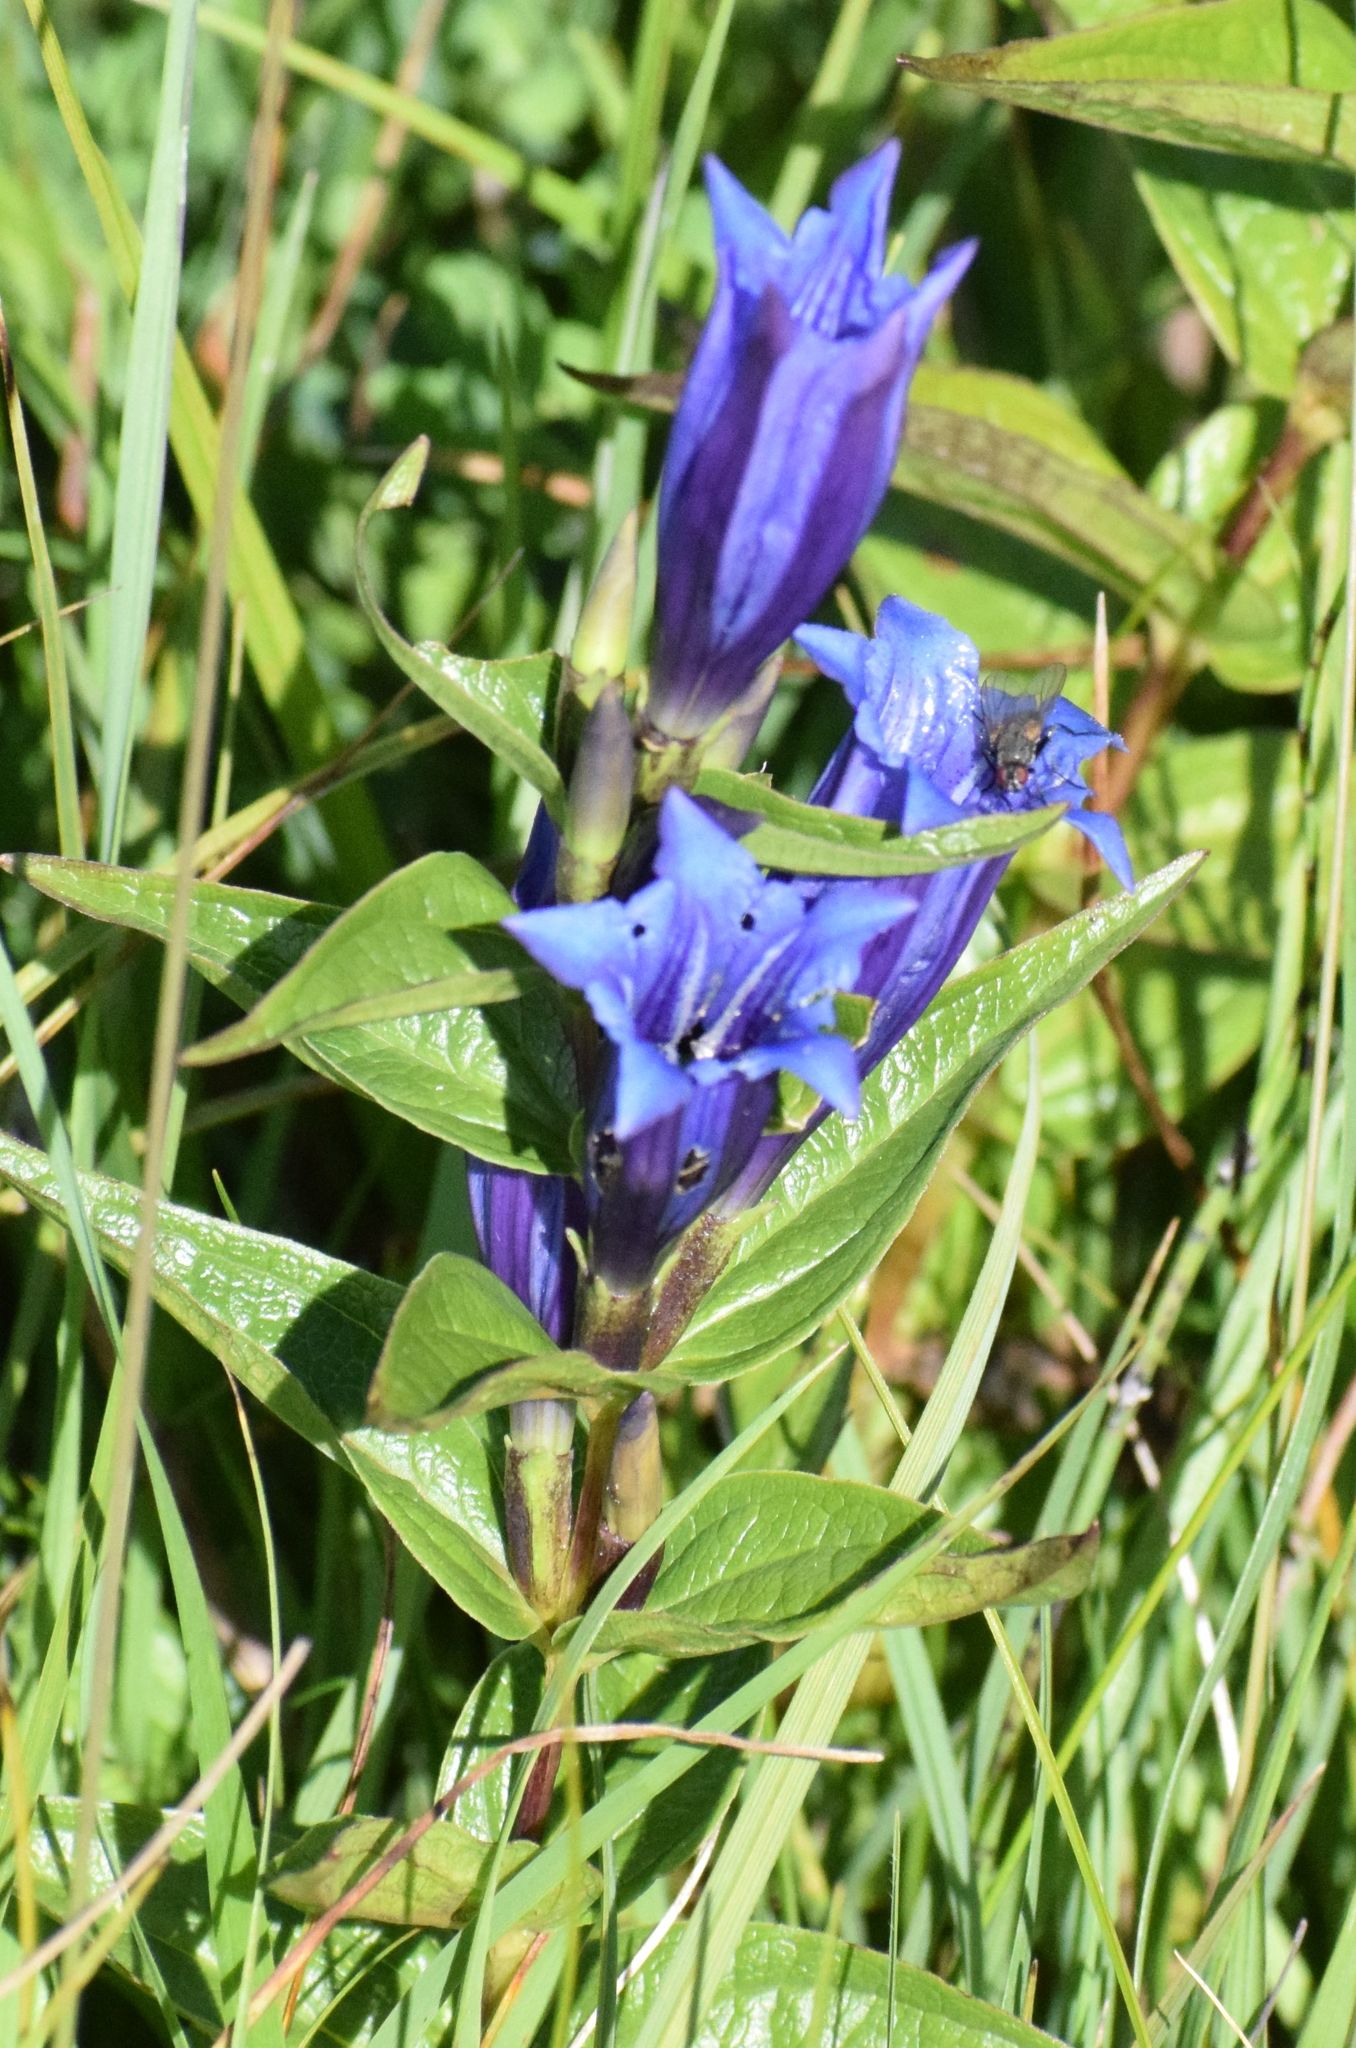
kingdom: Plantae
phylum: Tracheophyta
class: Magnoliopsida
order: Gentianales
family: Gentianaceae
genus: Gentiana
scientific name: Gentiana asclepiadea
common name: Willow gentian
